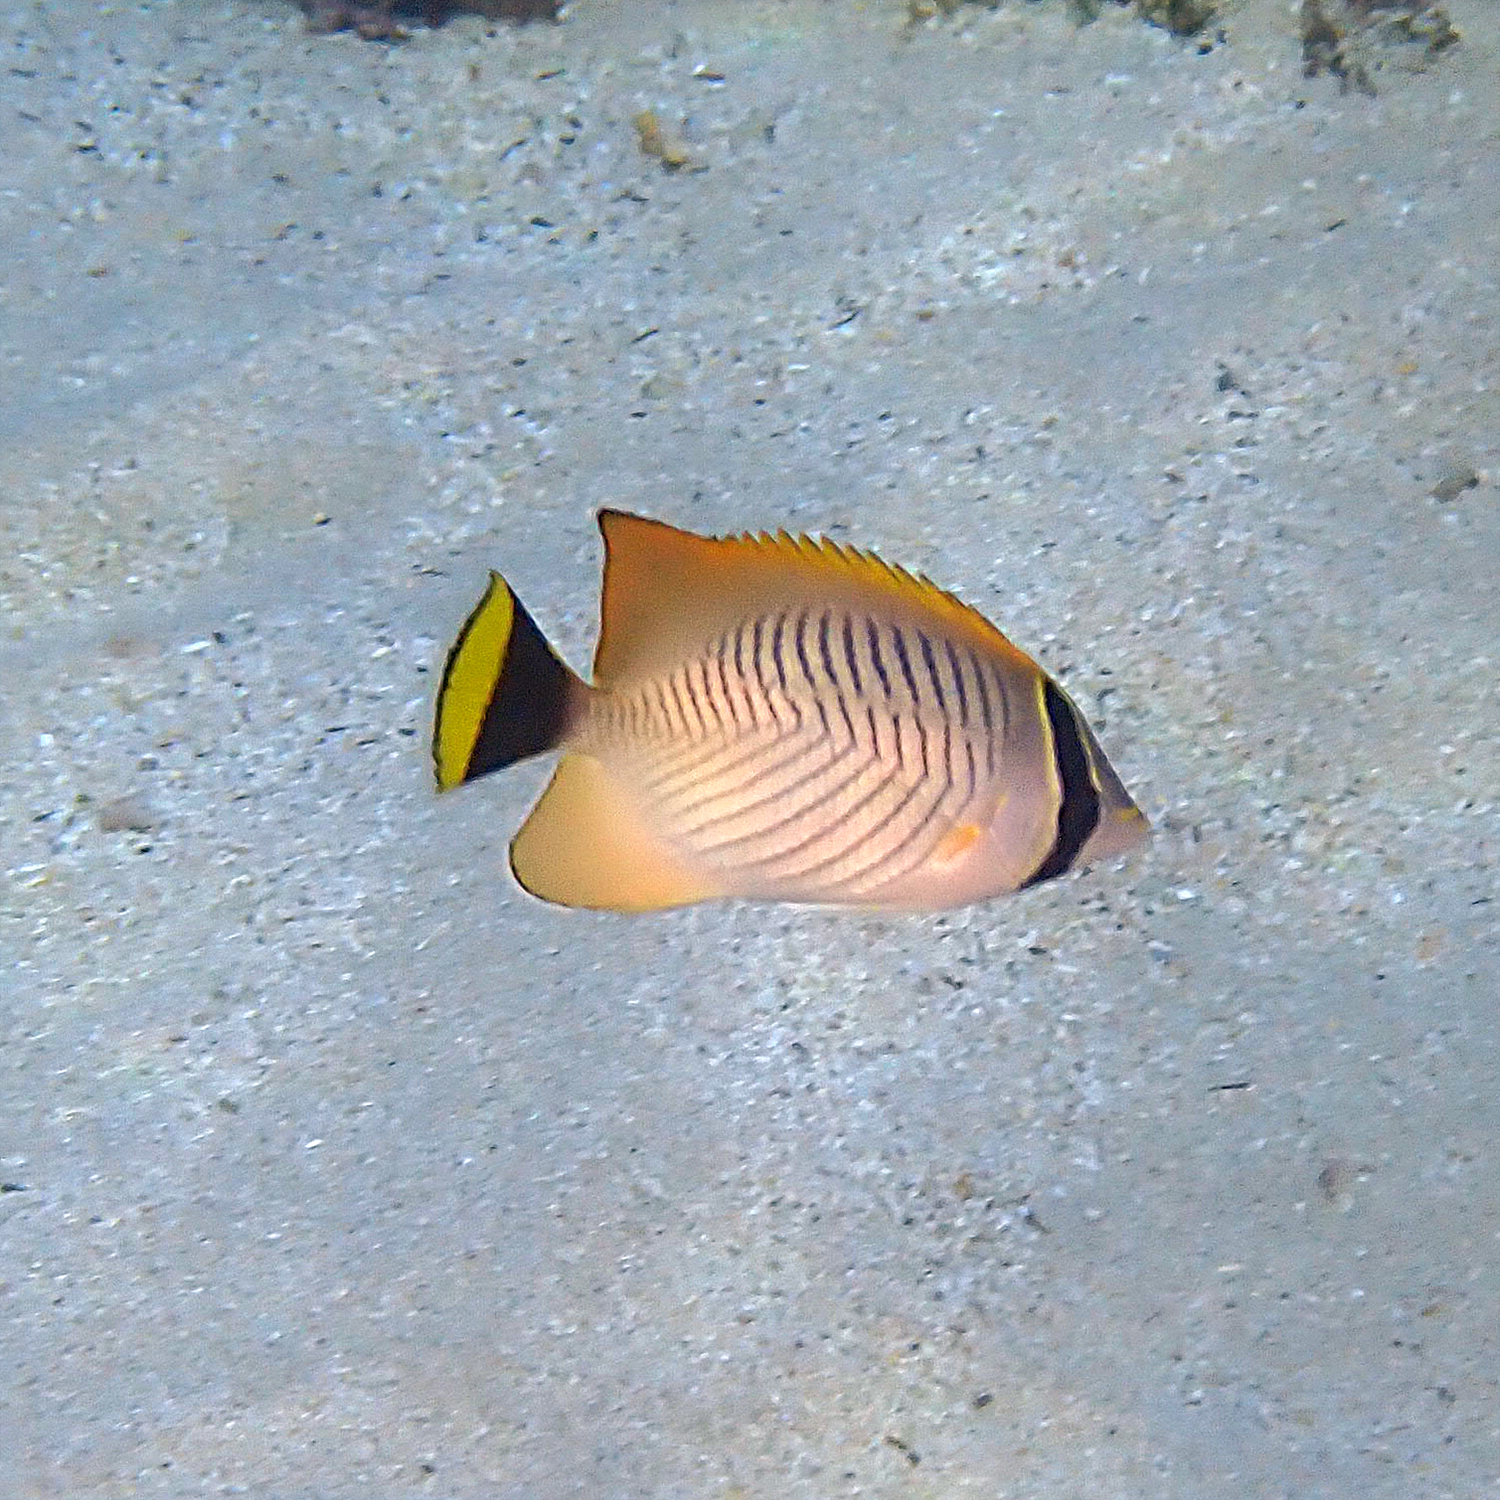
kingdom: Animalia
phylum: Chordata
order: Perciformes
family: Chaetodontidae
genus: Chaetodon
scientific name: Chaetodon trifascialis
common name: Chevroned butterflyfish
